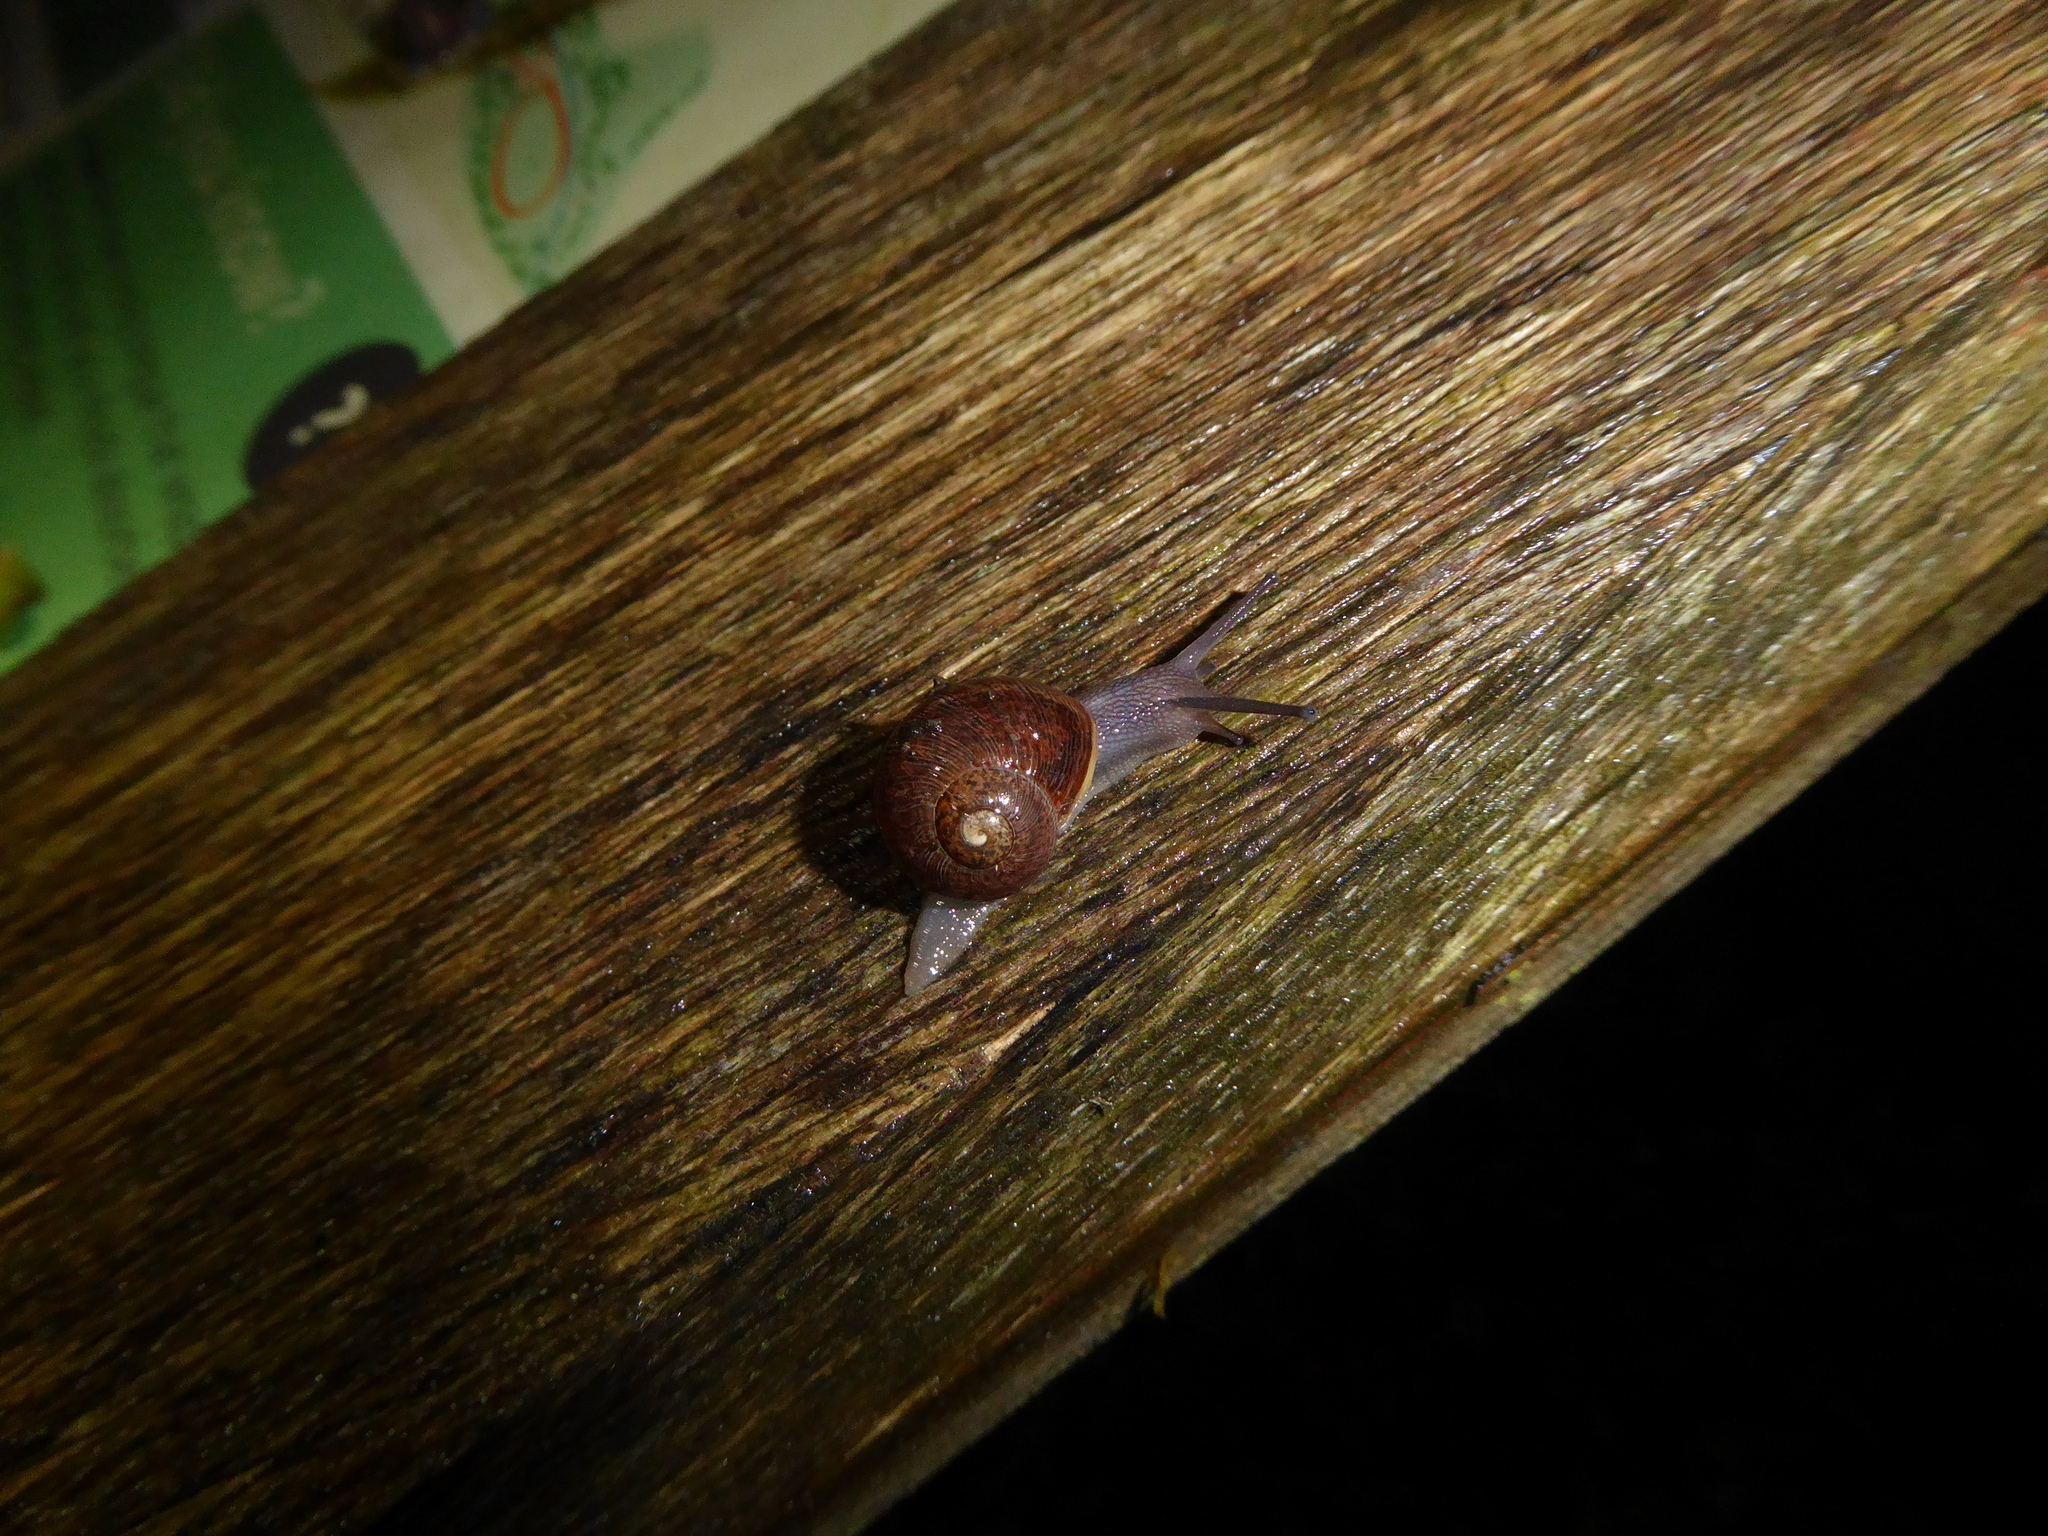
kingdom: Animalia
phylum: Mollusca
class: Gastropoda
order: Stylommatophora
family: Helicidae
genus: Cornu
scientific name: Cornu aspersum
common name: Brown garden snail
